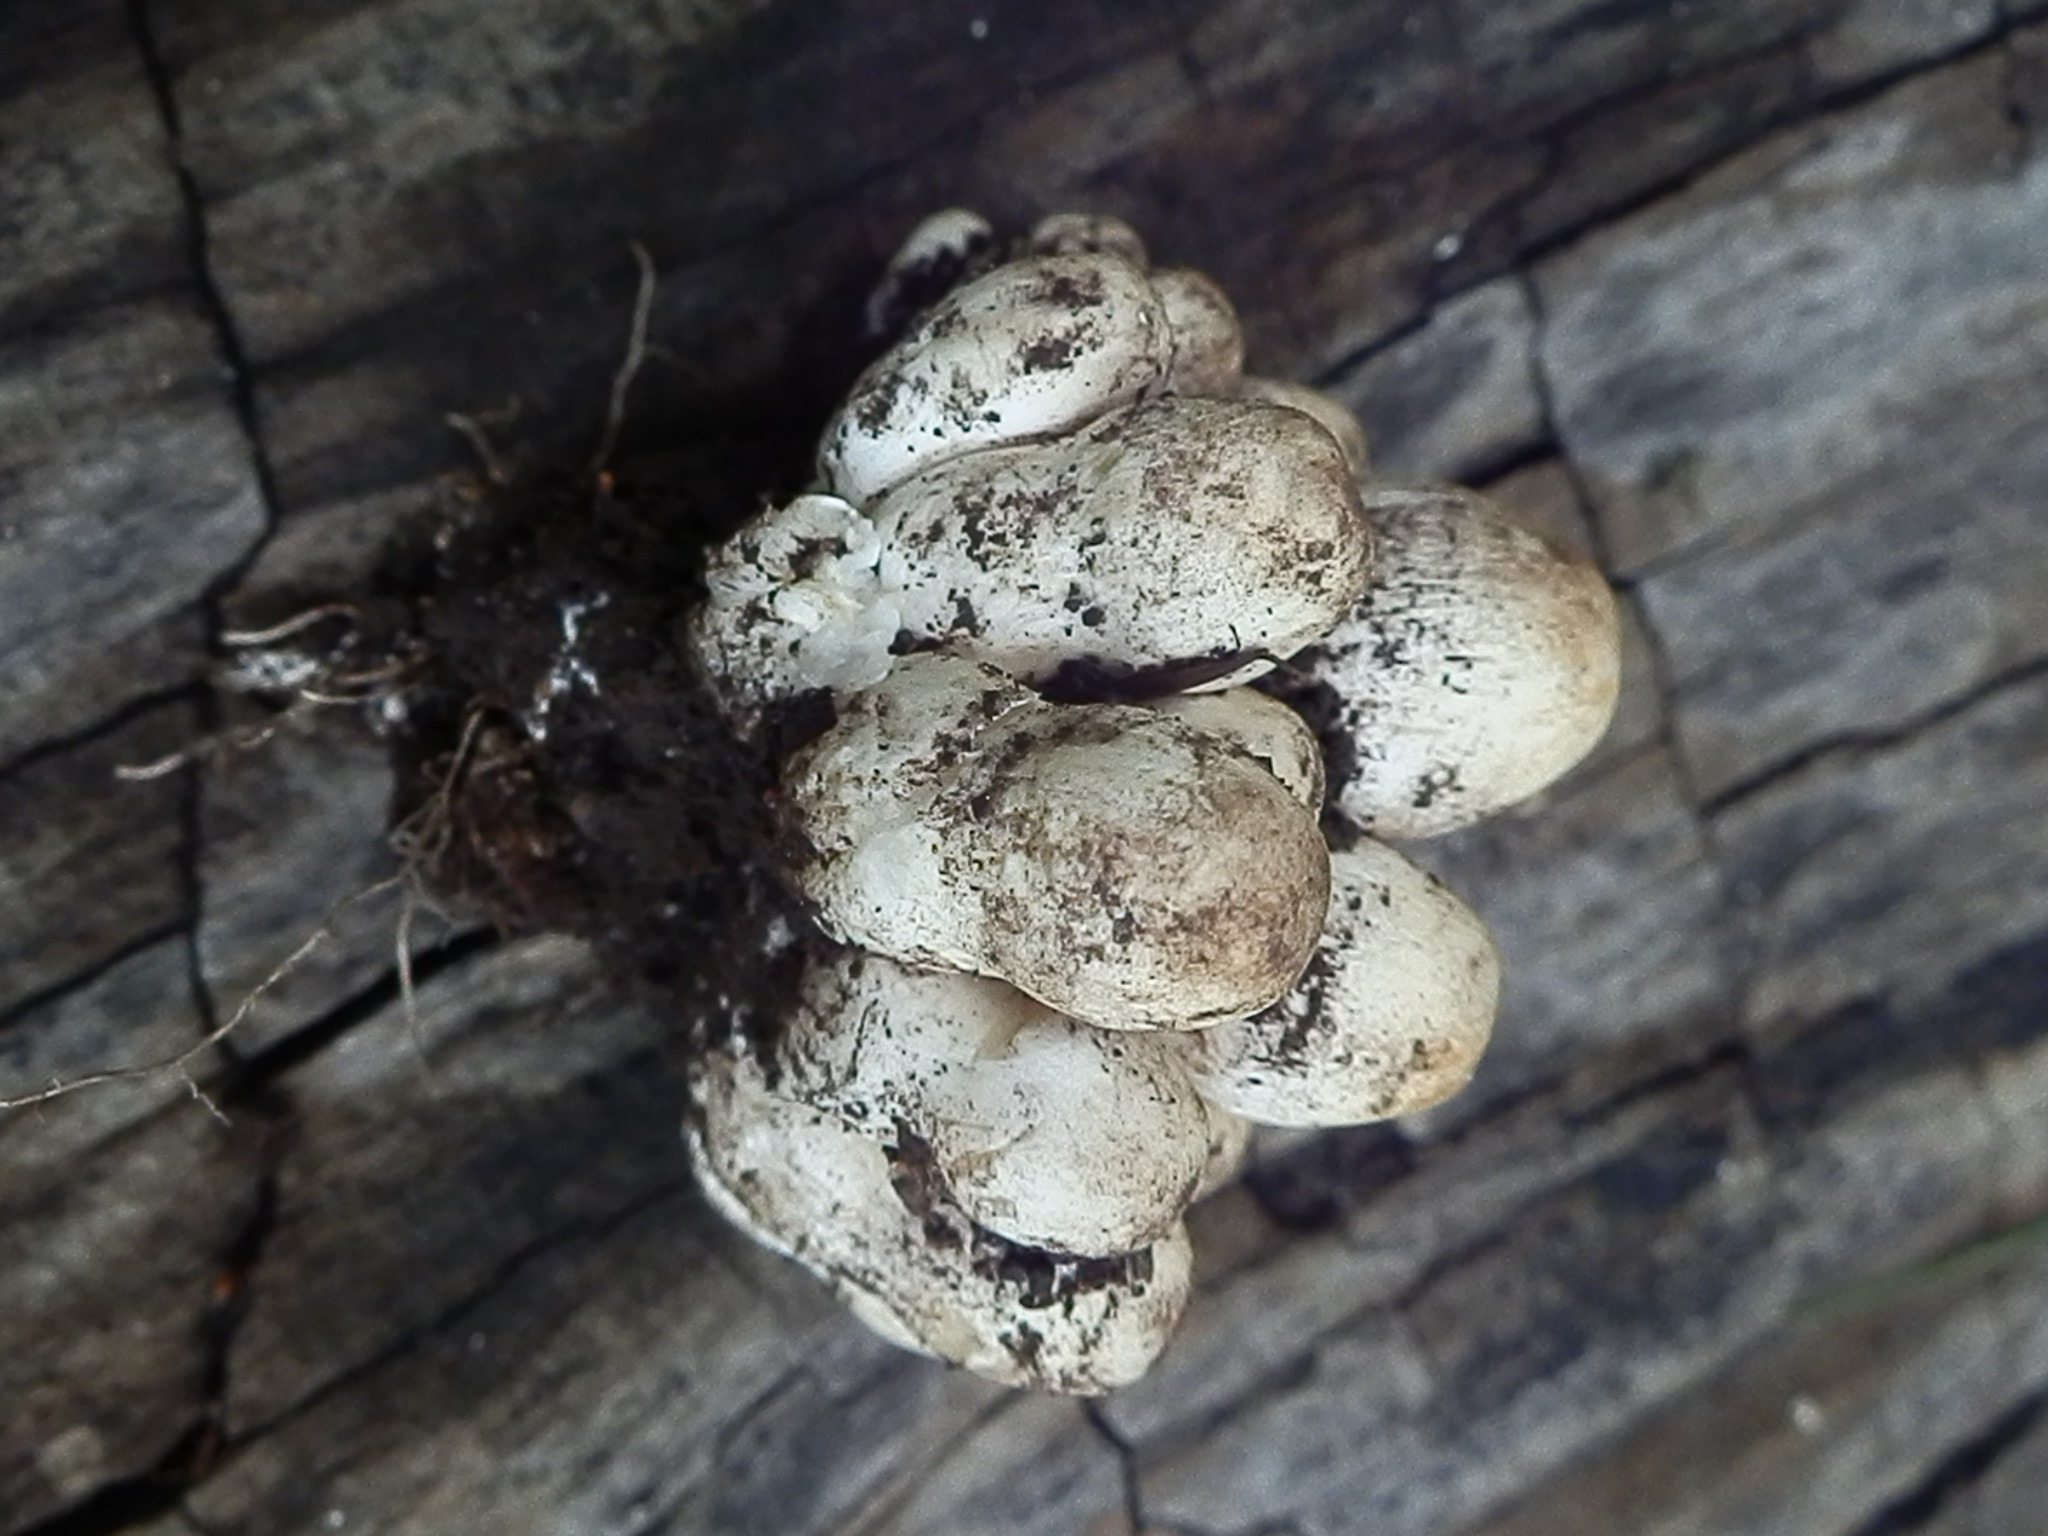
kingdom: Fungi
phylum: Basidiomycota
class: Agaricomycetes
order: Agaricales
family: Psathyrellaceae
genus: Coprinopsis
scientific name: Coprinopsis atramentaria
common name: Common ink-cap
